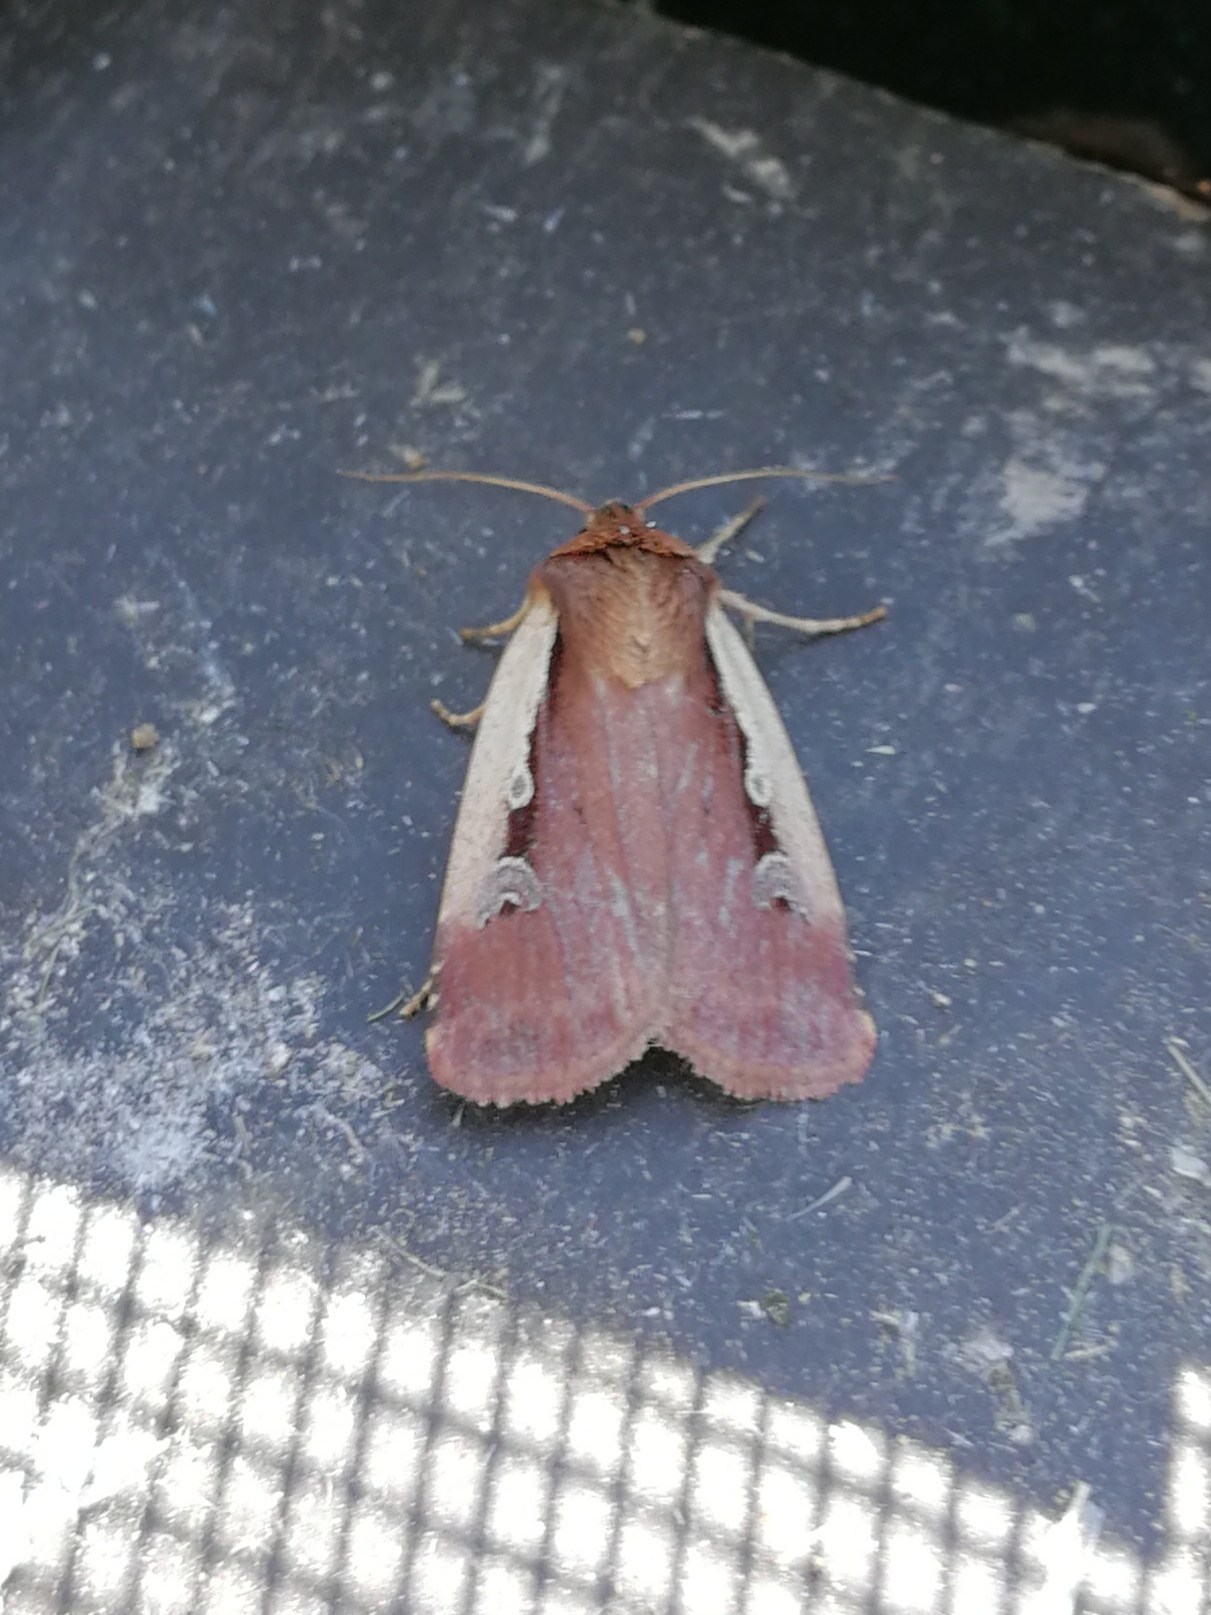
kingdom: Animalia
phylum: Arthropoda
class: Insecta
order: Lepidoptera
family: Noctuidae
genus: Ochropleura
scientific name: Ochropleura plecta
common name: Flame shoulder
